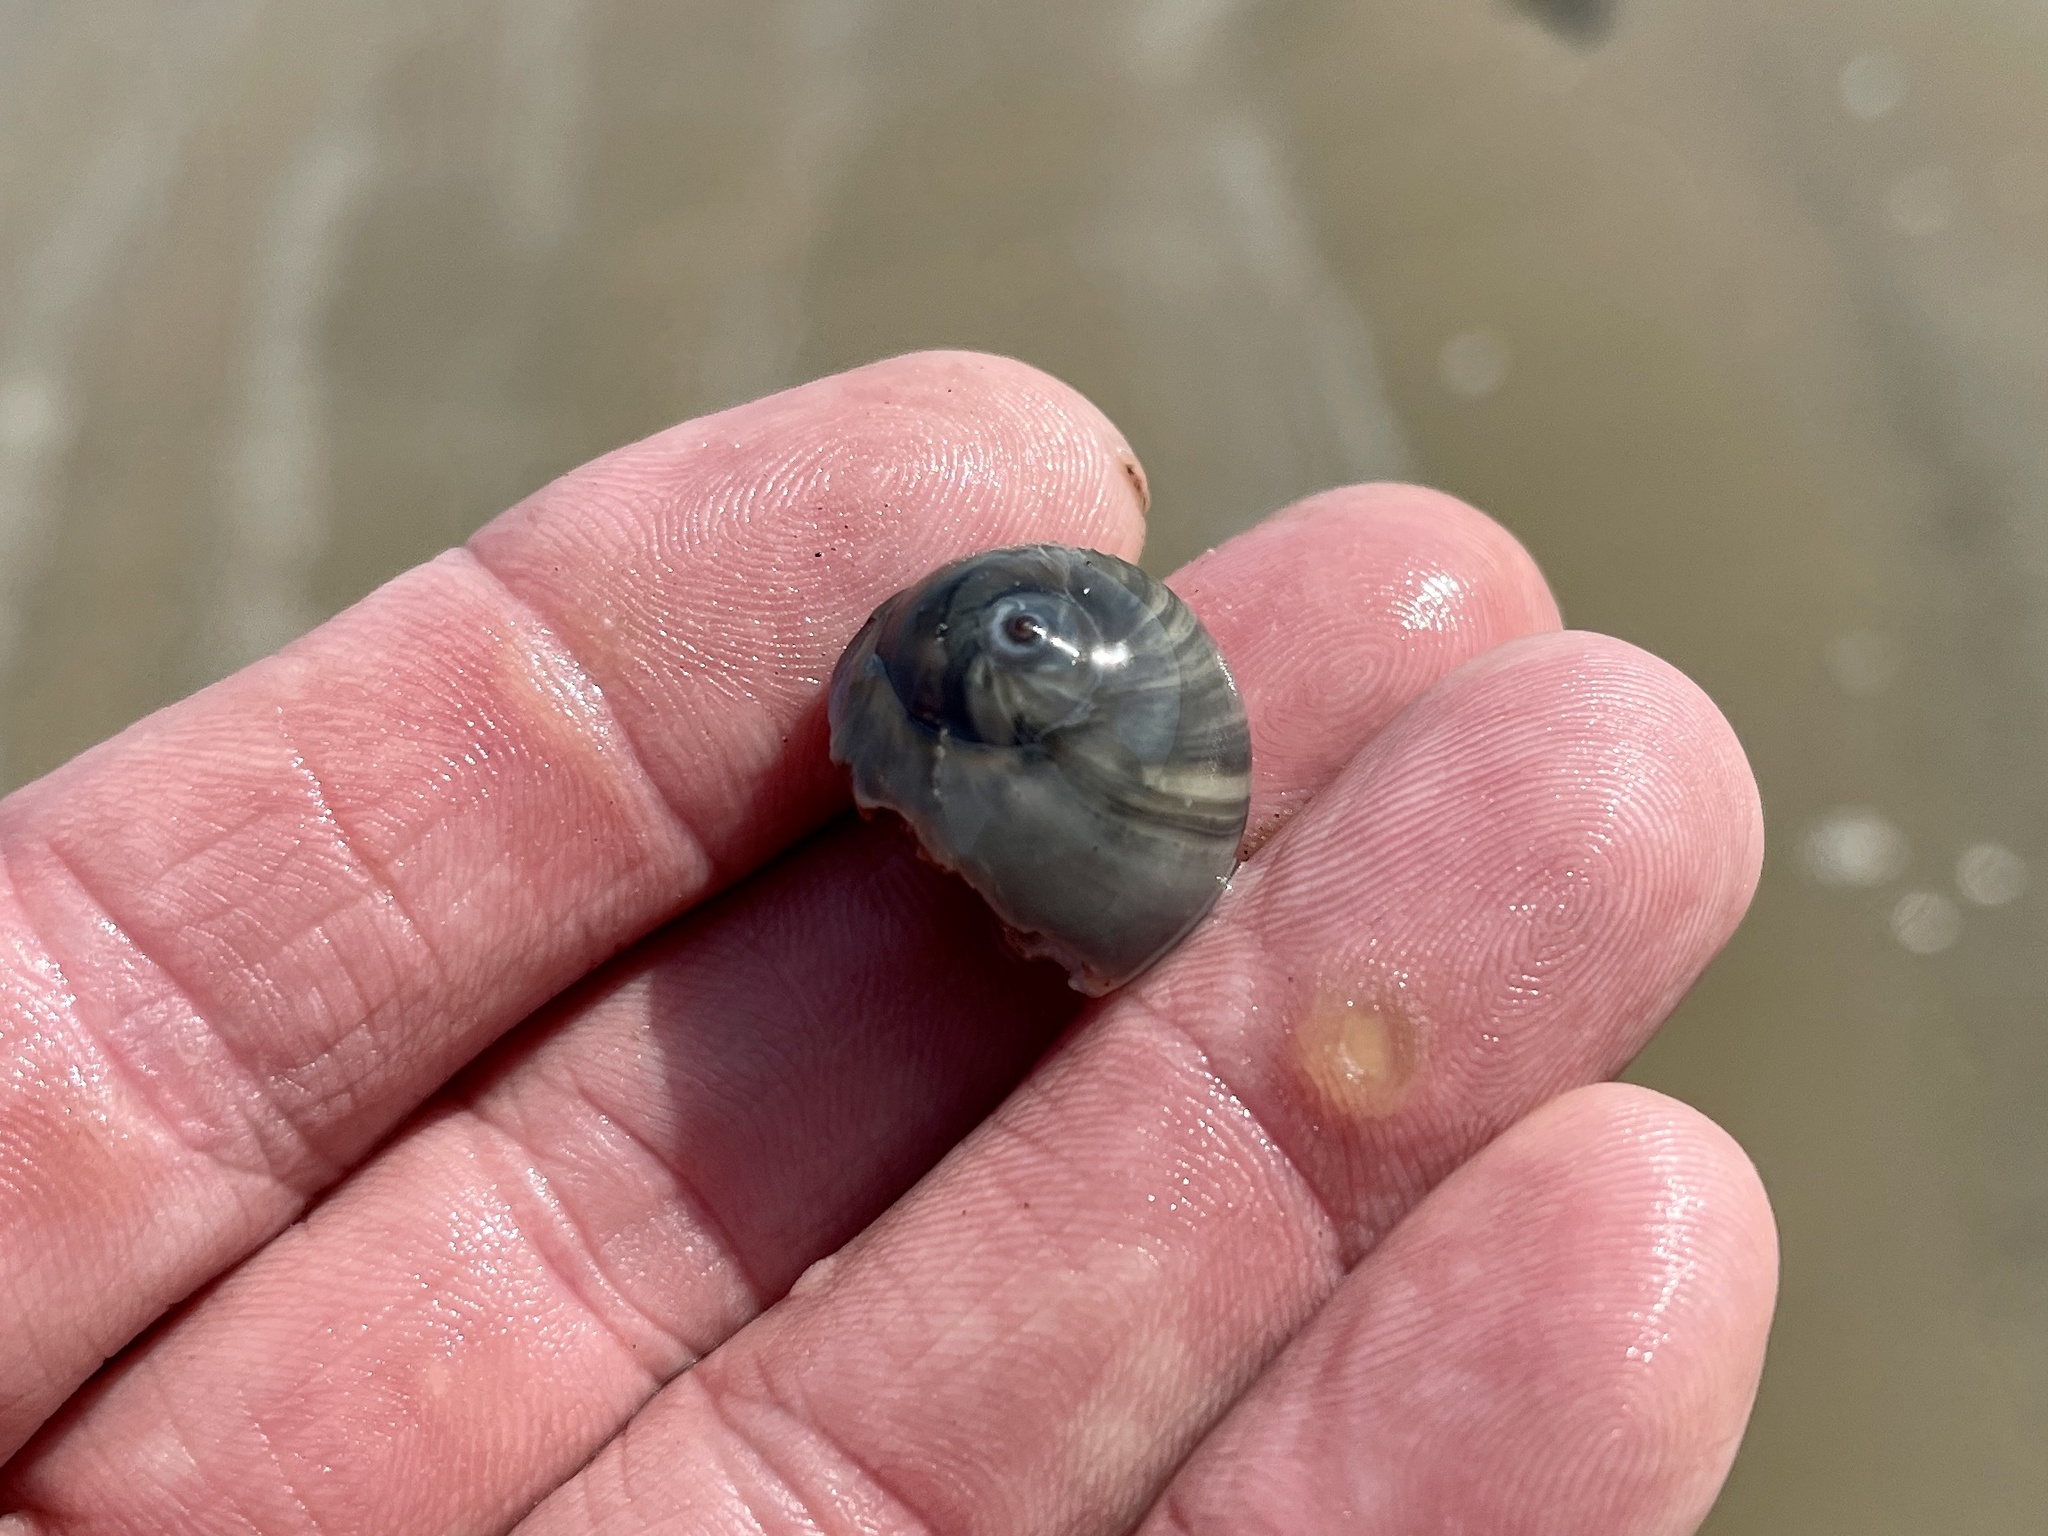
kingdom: Animalia
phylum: Mollusca
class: Gastropoda
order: Littorinimorpha
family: Naticidae
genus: Neverita
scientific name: Neverita duplicata
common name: Lobed moonsnail
